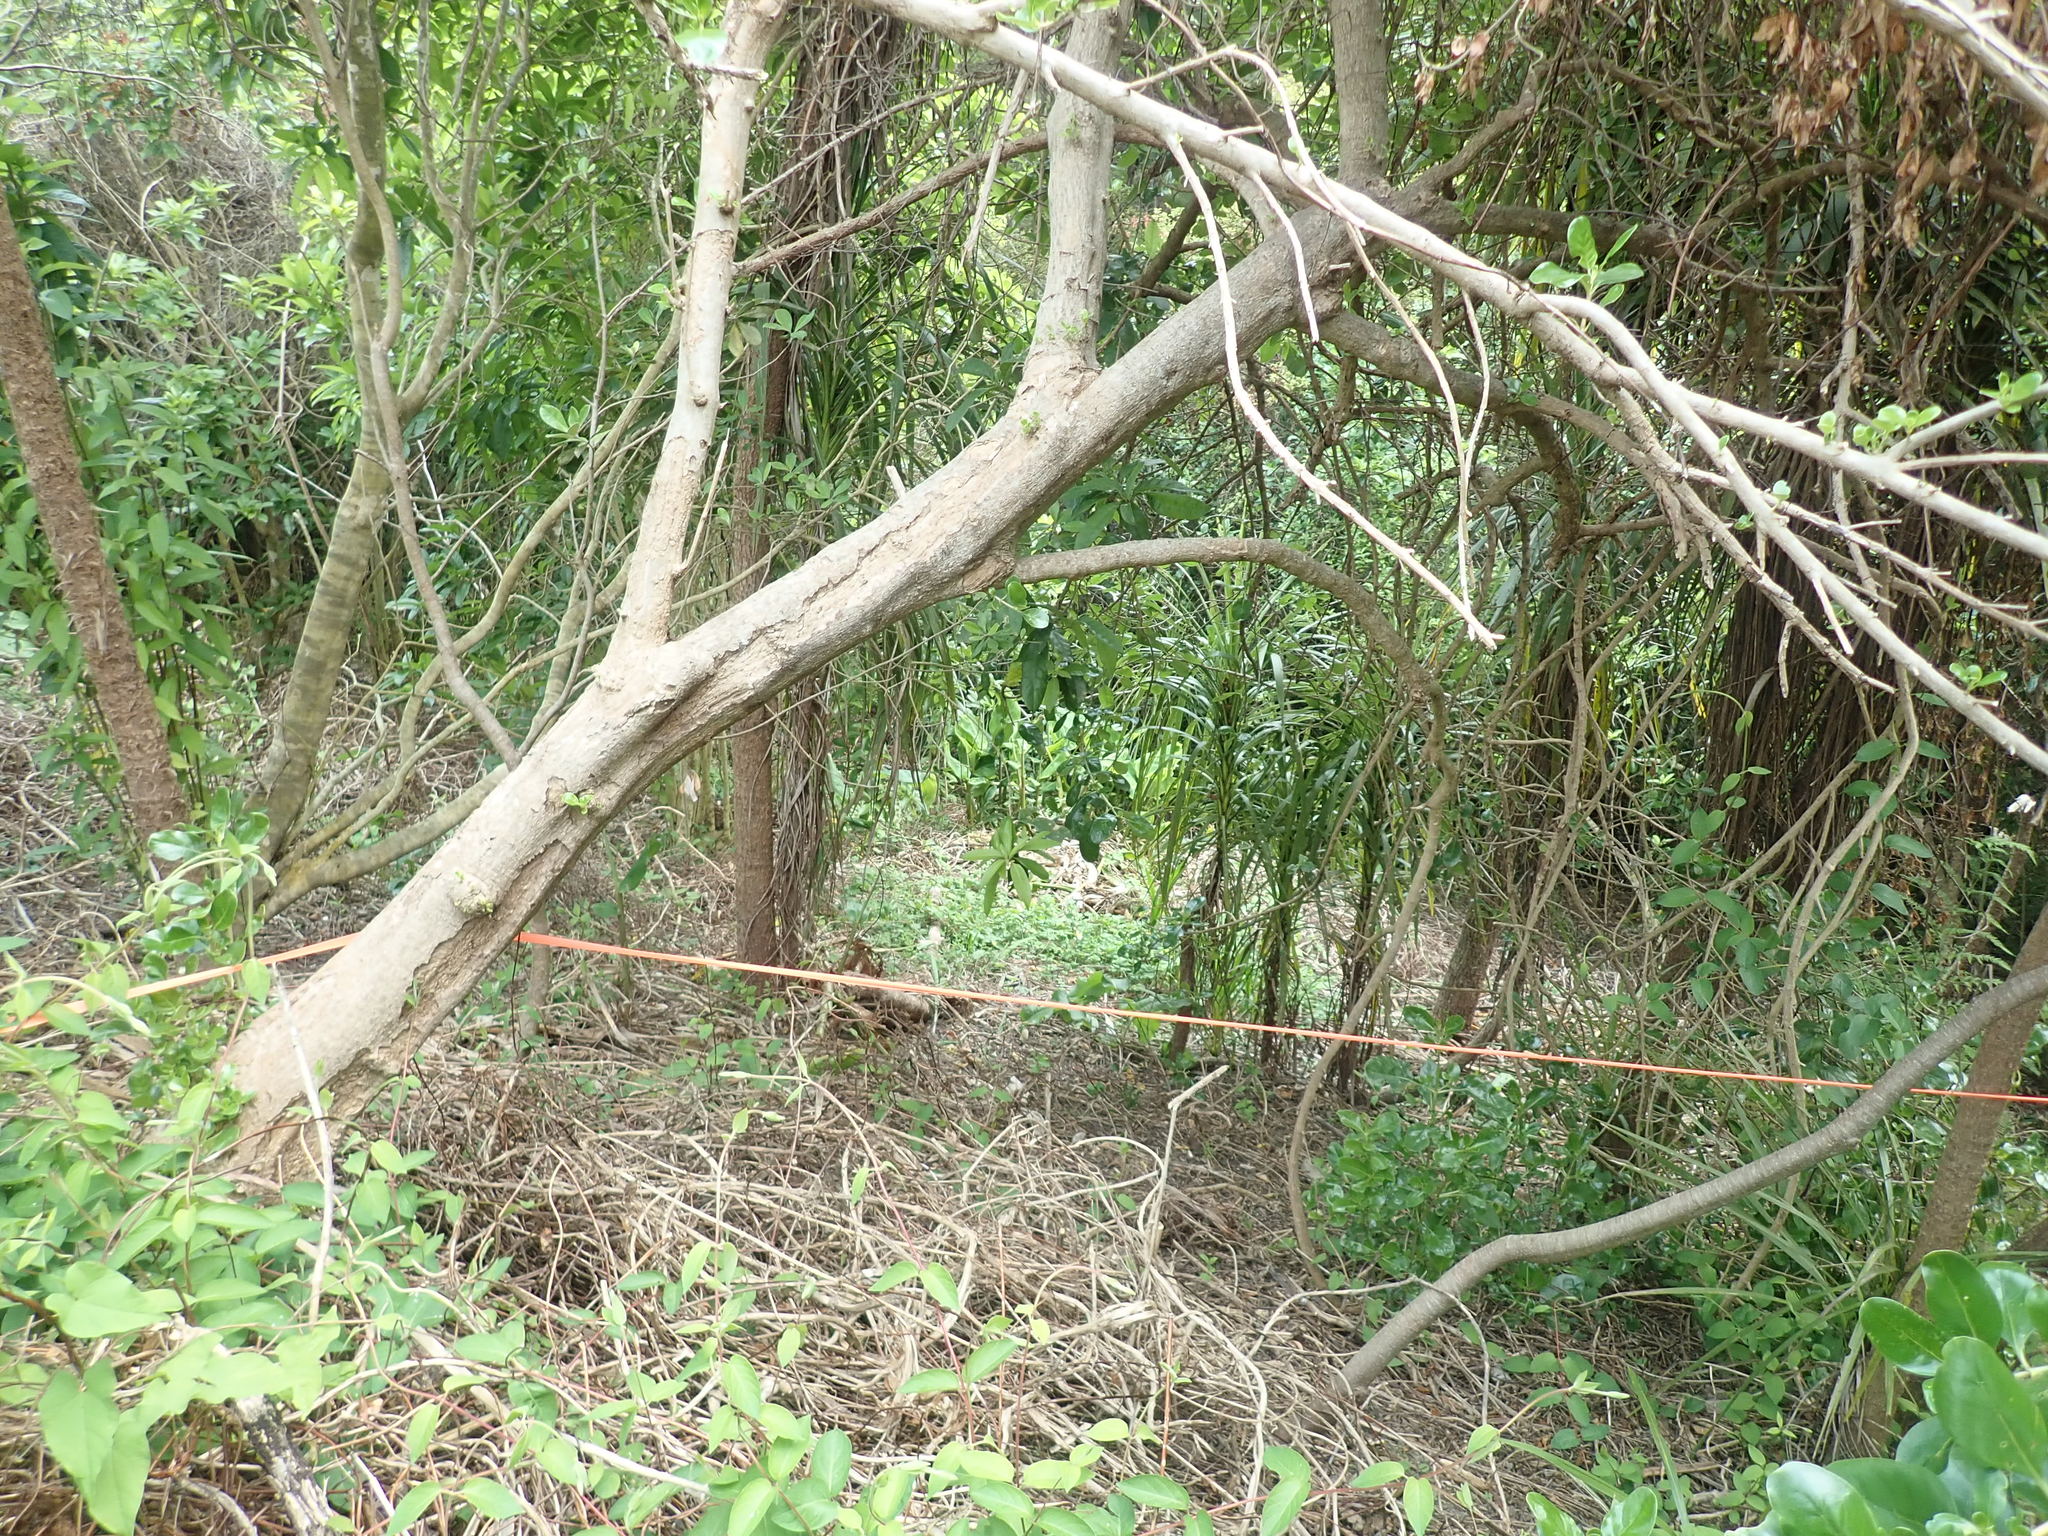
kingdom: Plantae
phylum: Tracheophyta
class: Magnoliopsida
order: Malpighiales
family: Violaceae
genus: Melicytus
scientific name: Melicytus ramiflorus
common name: Mahoe
